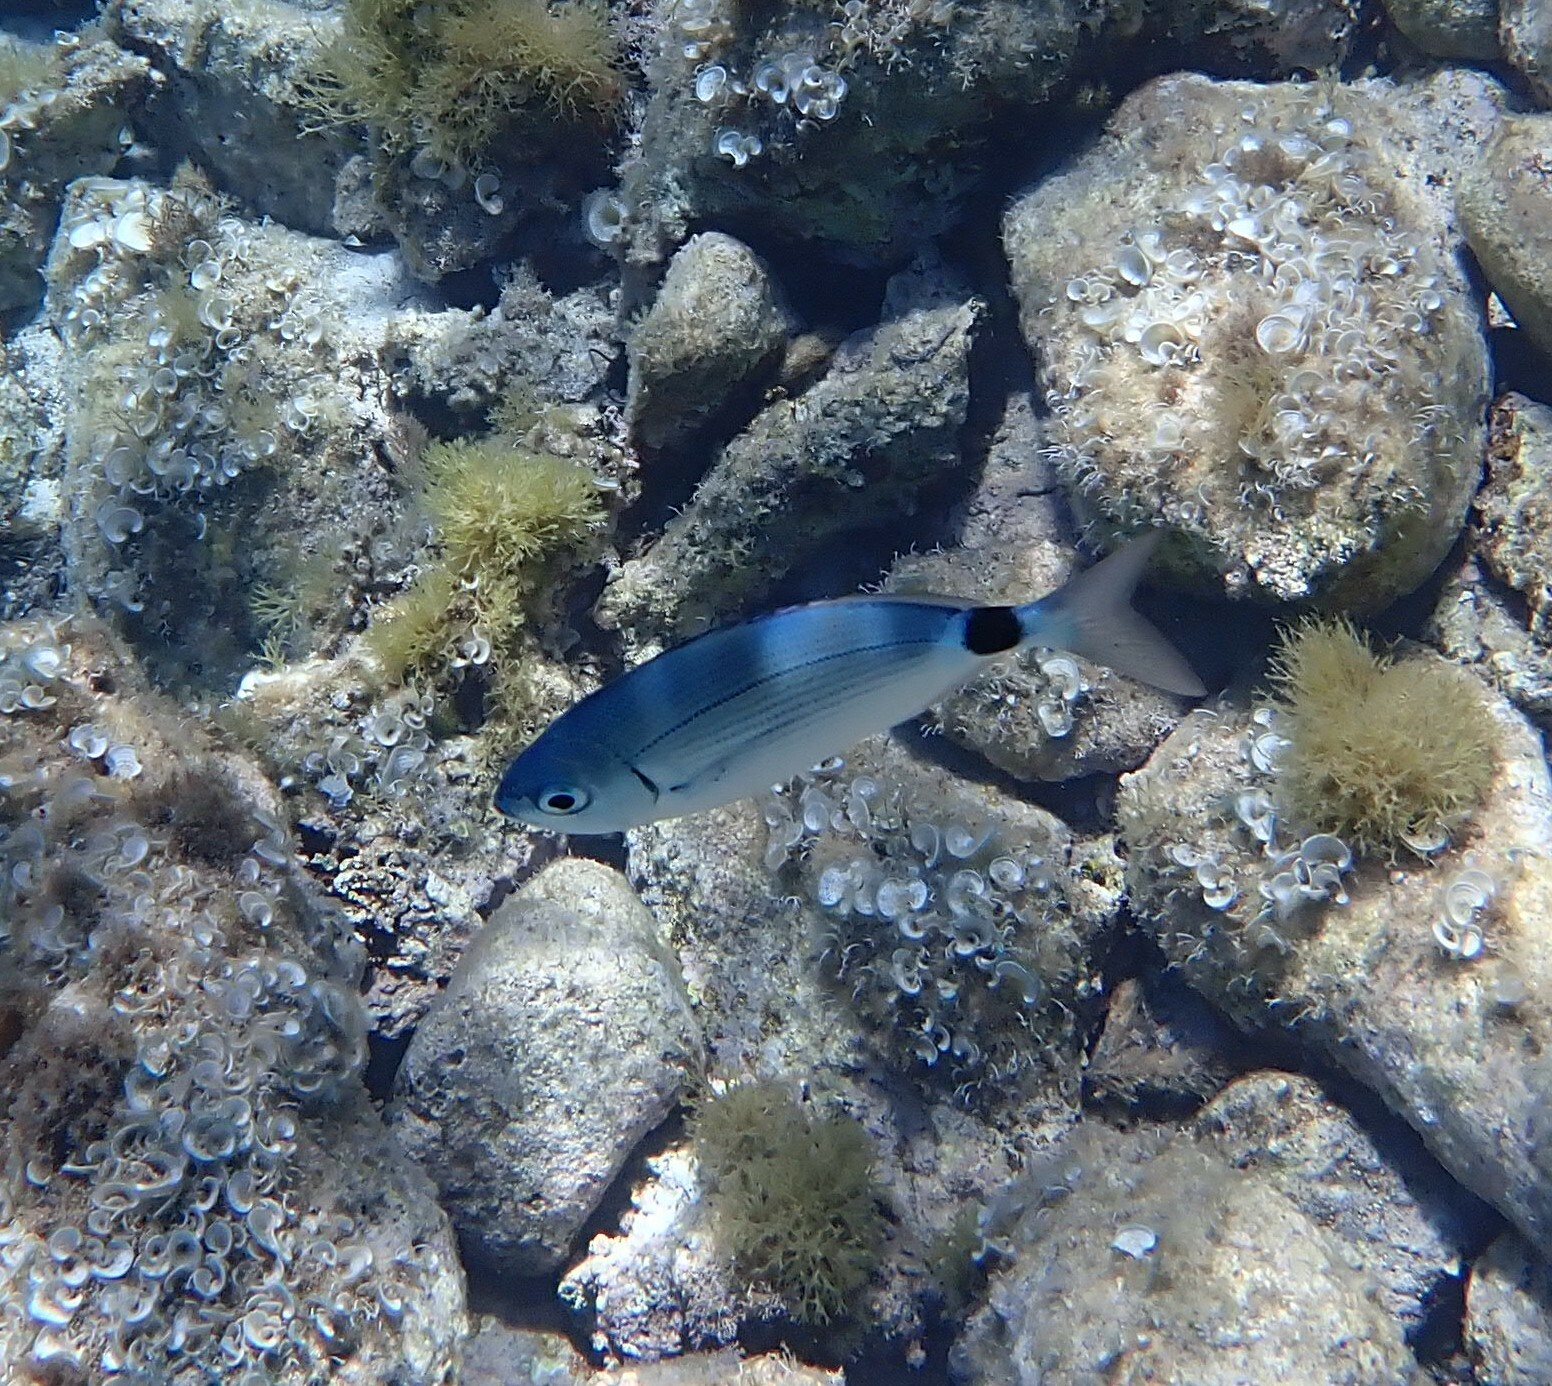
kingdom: Animalia
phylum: Chordata
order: Perciformes
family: Sparidae
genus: Oblada
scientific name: Oblada melanura
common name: Saddled seabream
